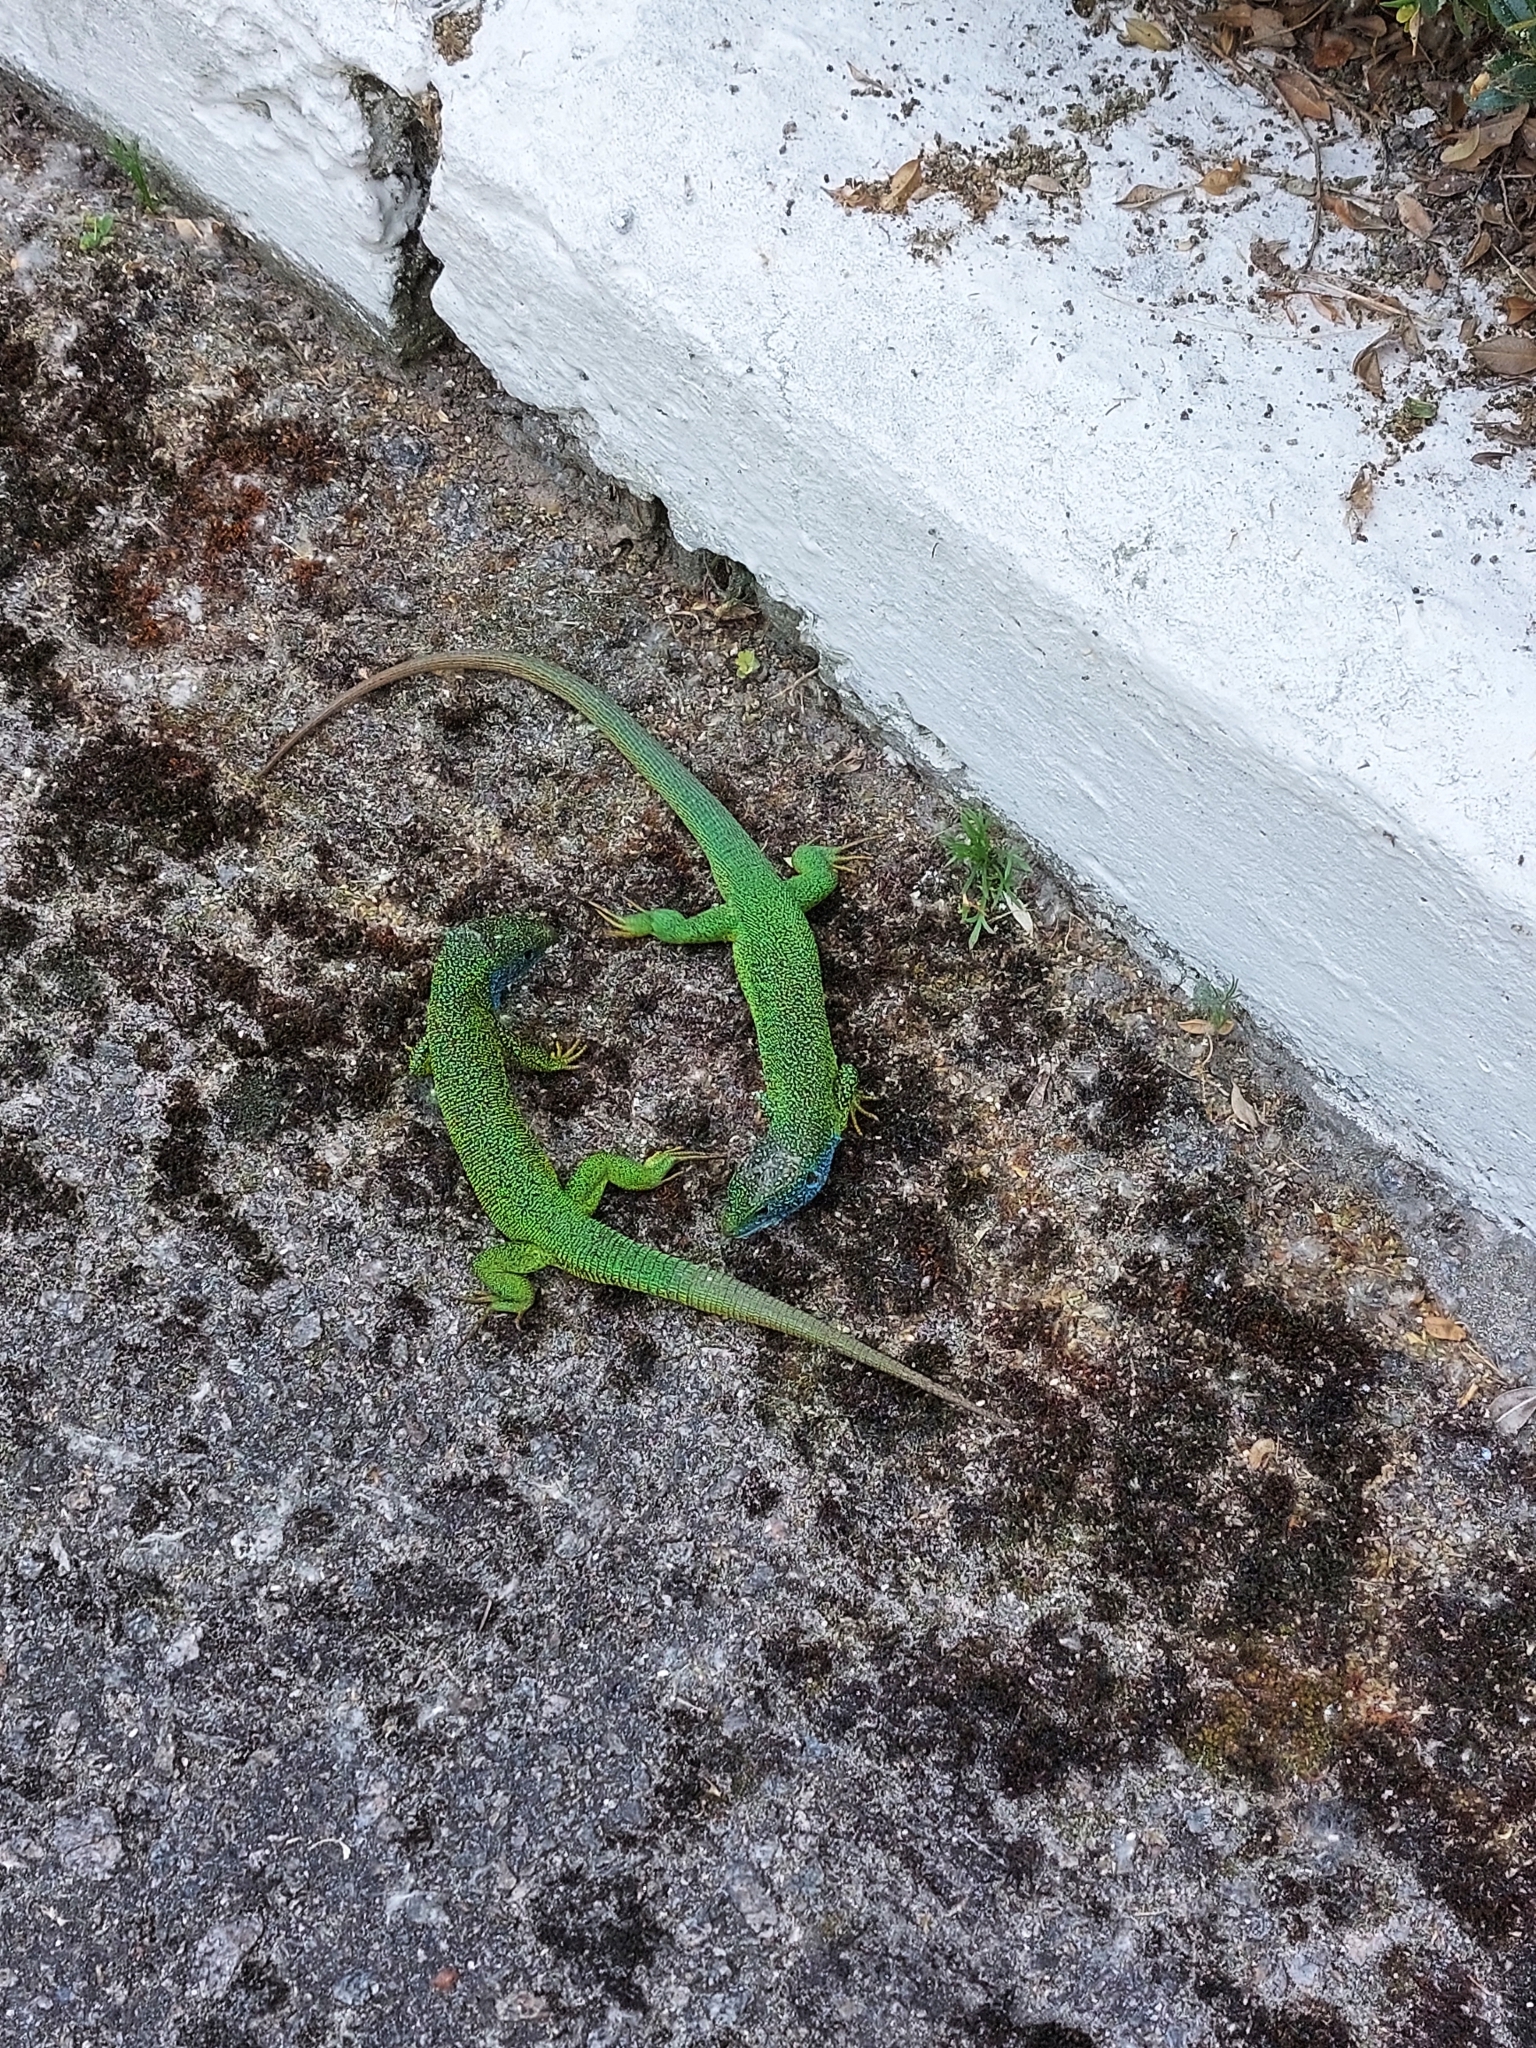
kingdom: Animalia
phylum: Chordata
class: Squamata
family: Lacertidae
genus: Lacerta
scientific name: Lacerta viridis
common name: European green lizard
